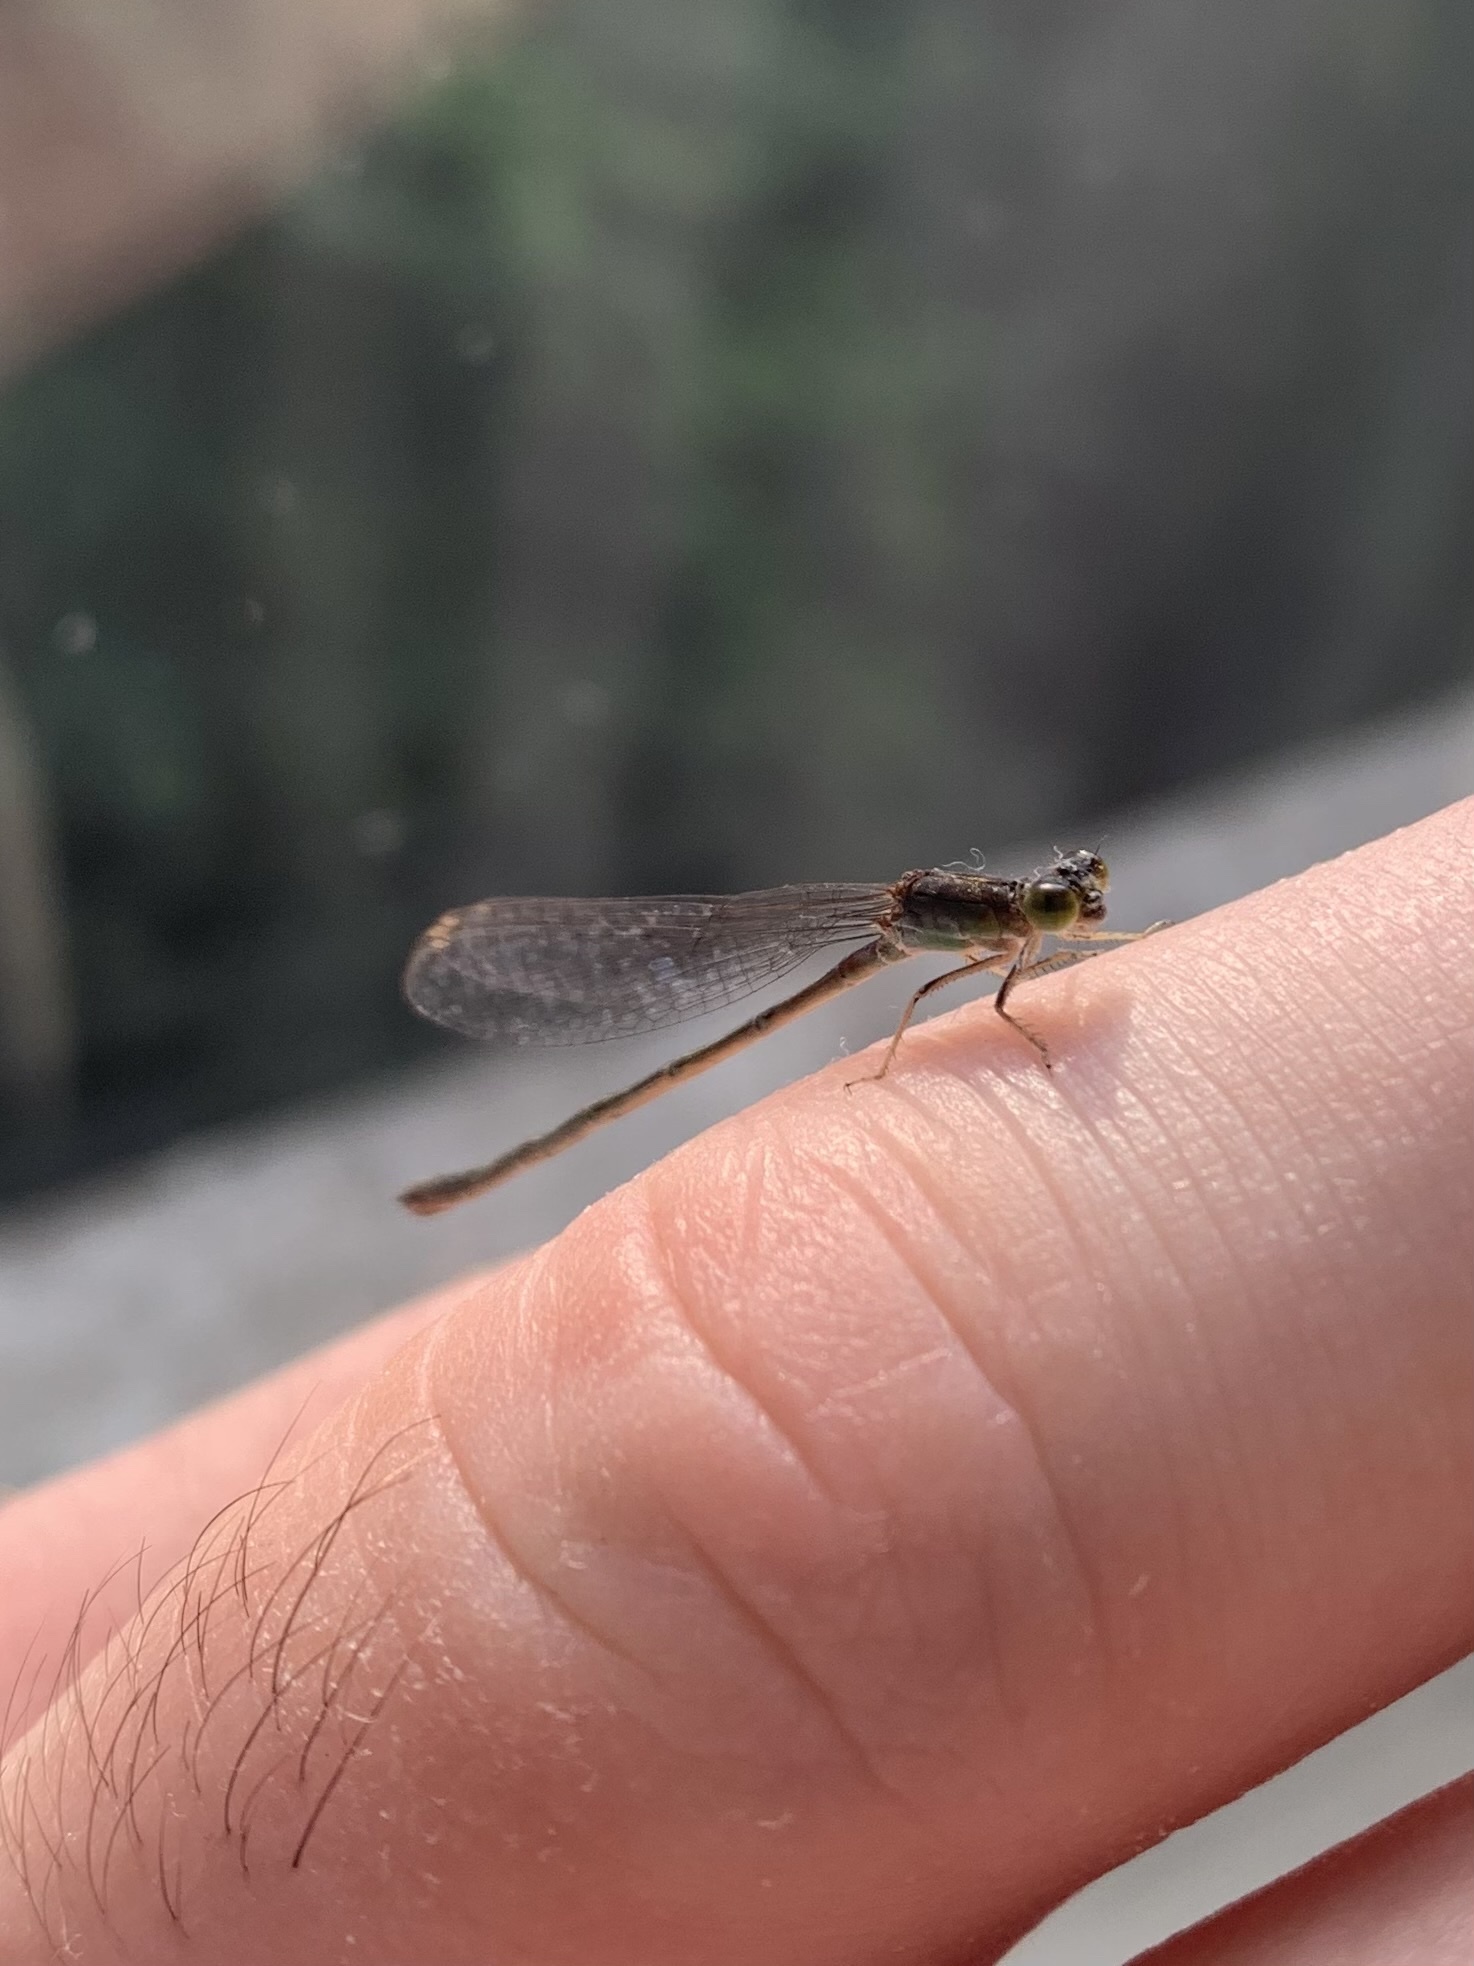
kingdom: Animalia
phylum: Arthropoda
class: Insecta
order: Odonata
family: Coenagrionidae
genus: Ischnura
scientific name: Ischnura pumilio
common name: Scarce blue-tailed damselfly
